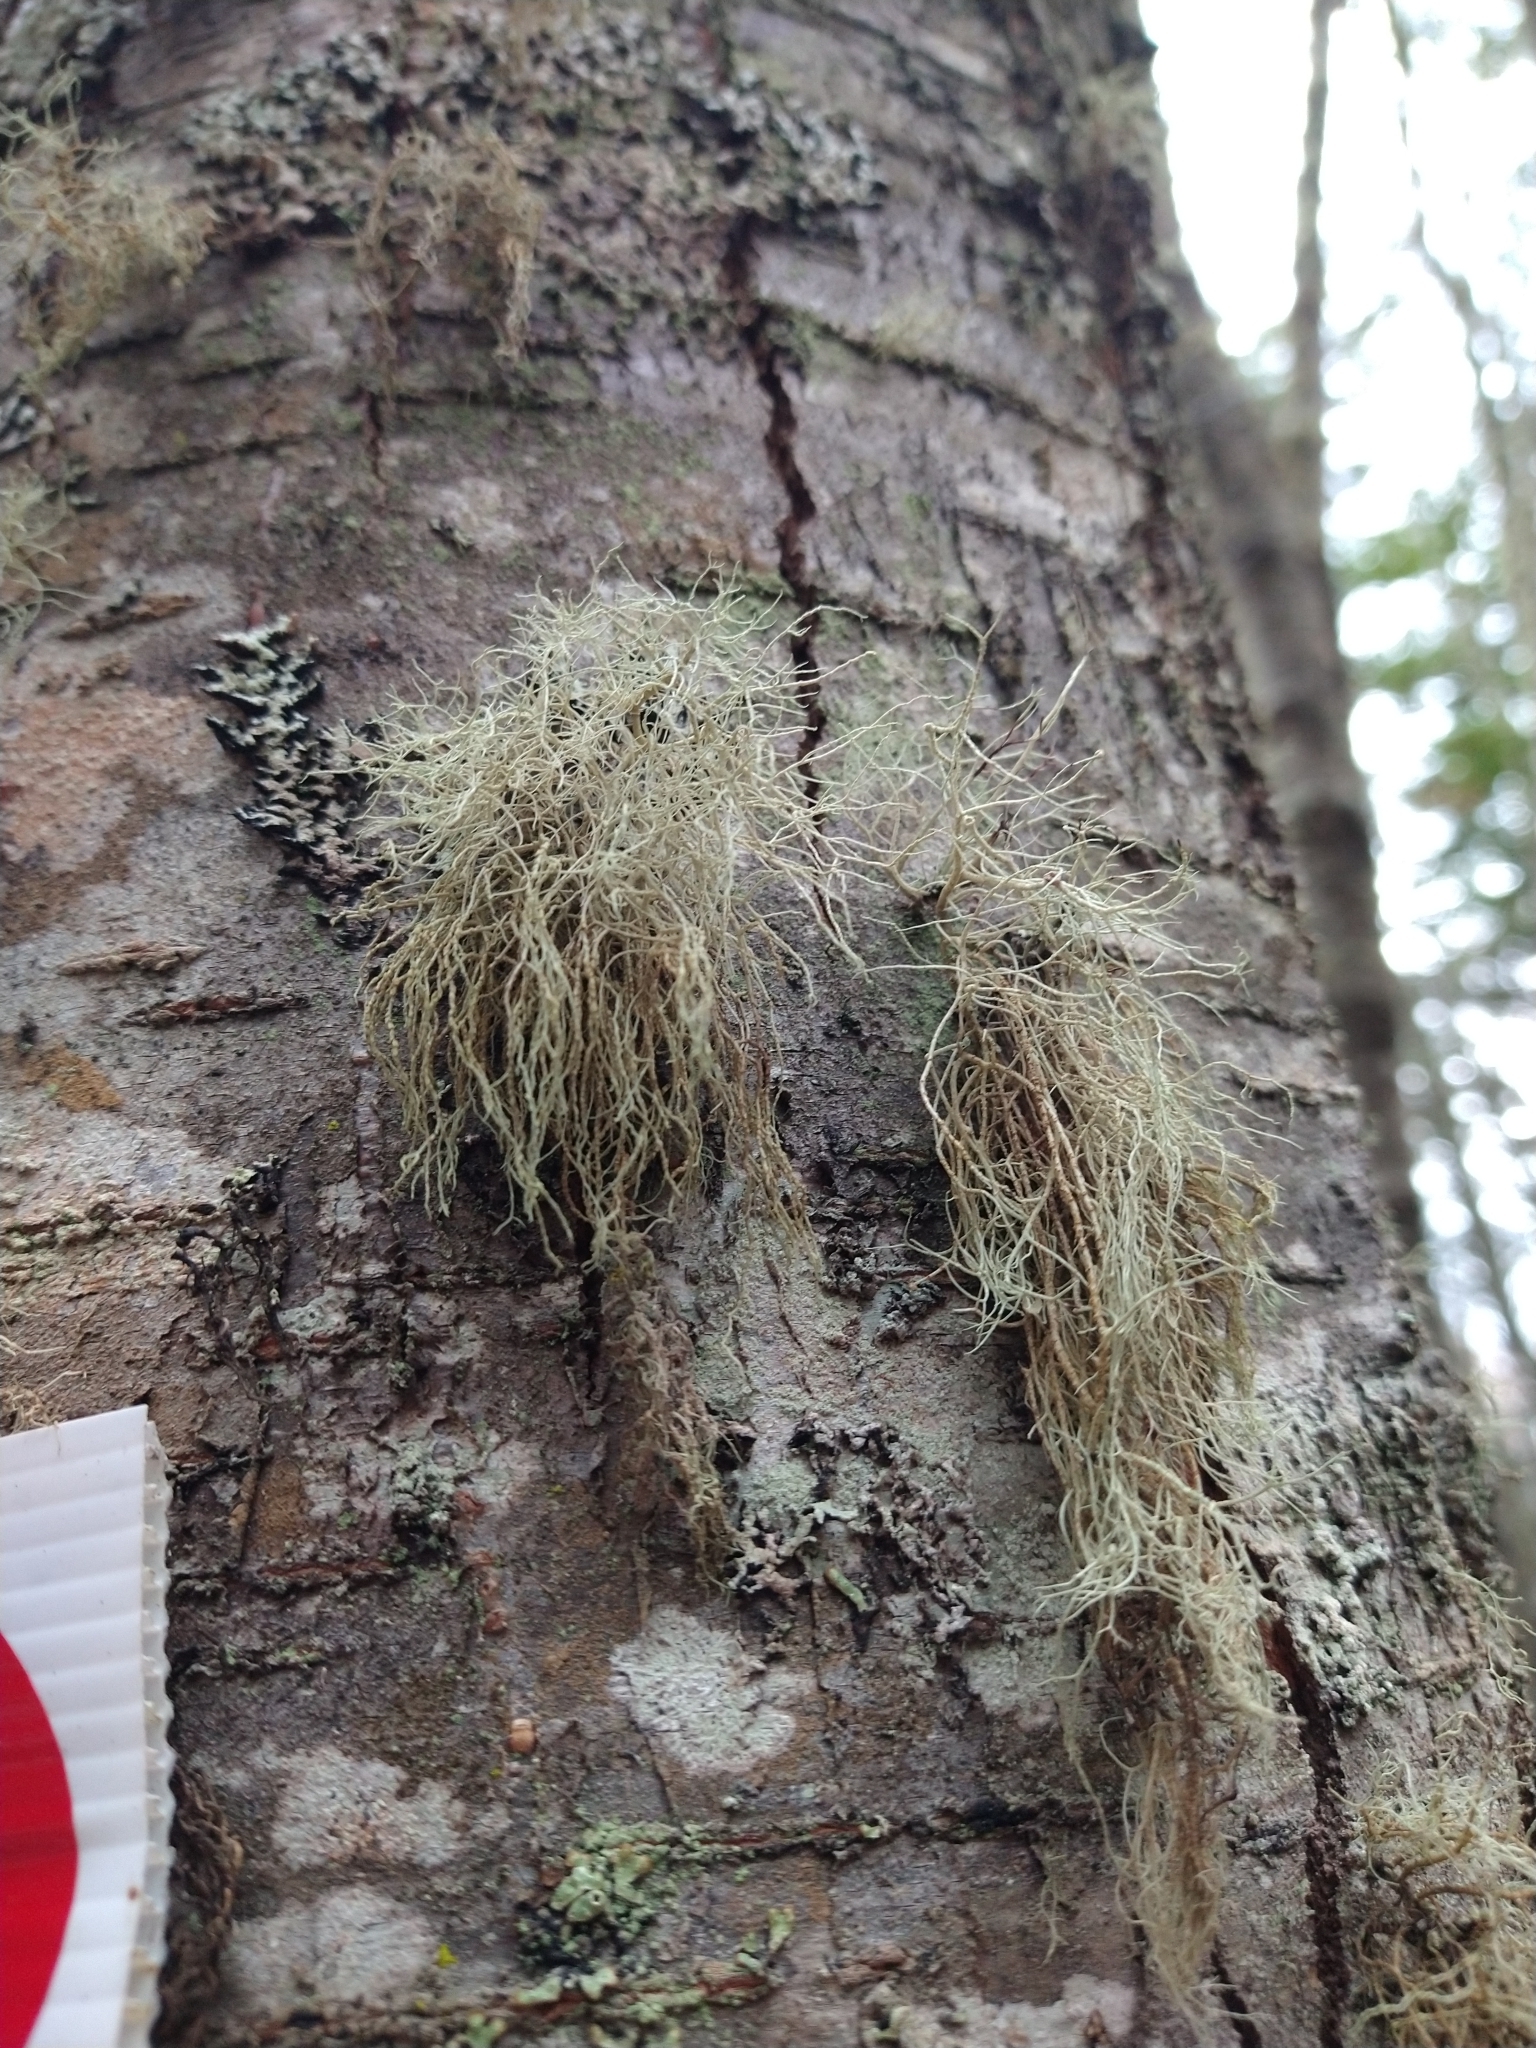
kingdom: Fungi
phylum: Ascomycota
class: Lecanoromycetes
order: Lecanorales
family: Parmeliaceae
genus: Usnea
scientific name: Usnea hirta
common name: Bristly beard lichen
